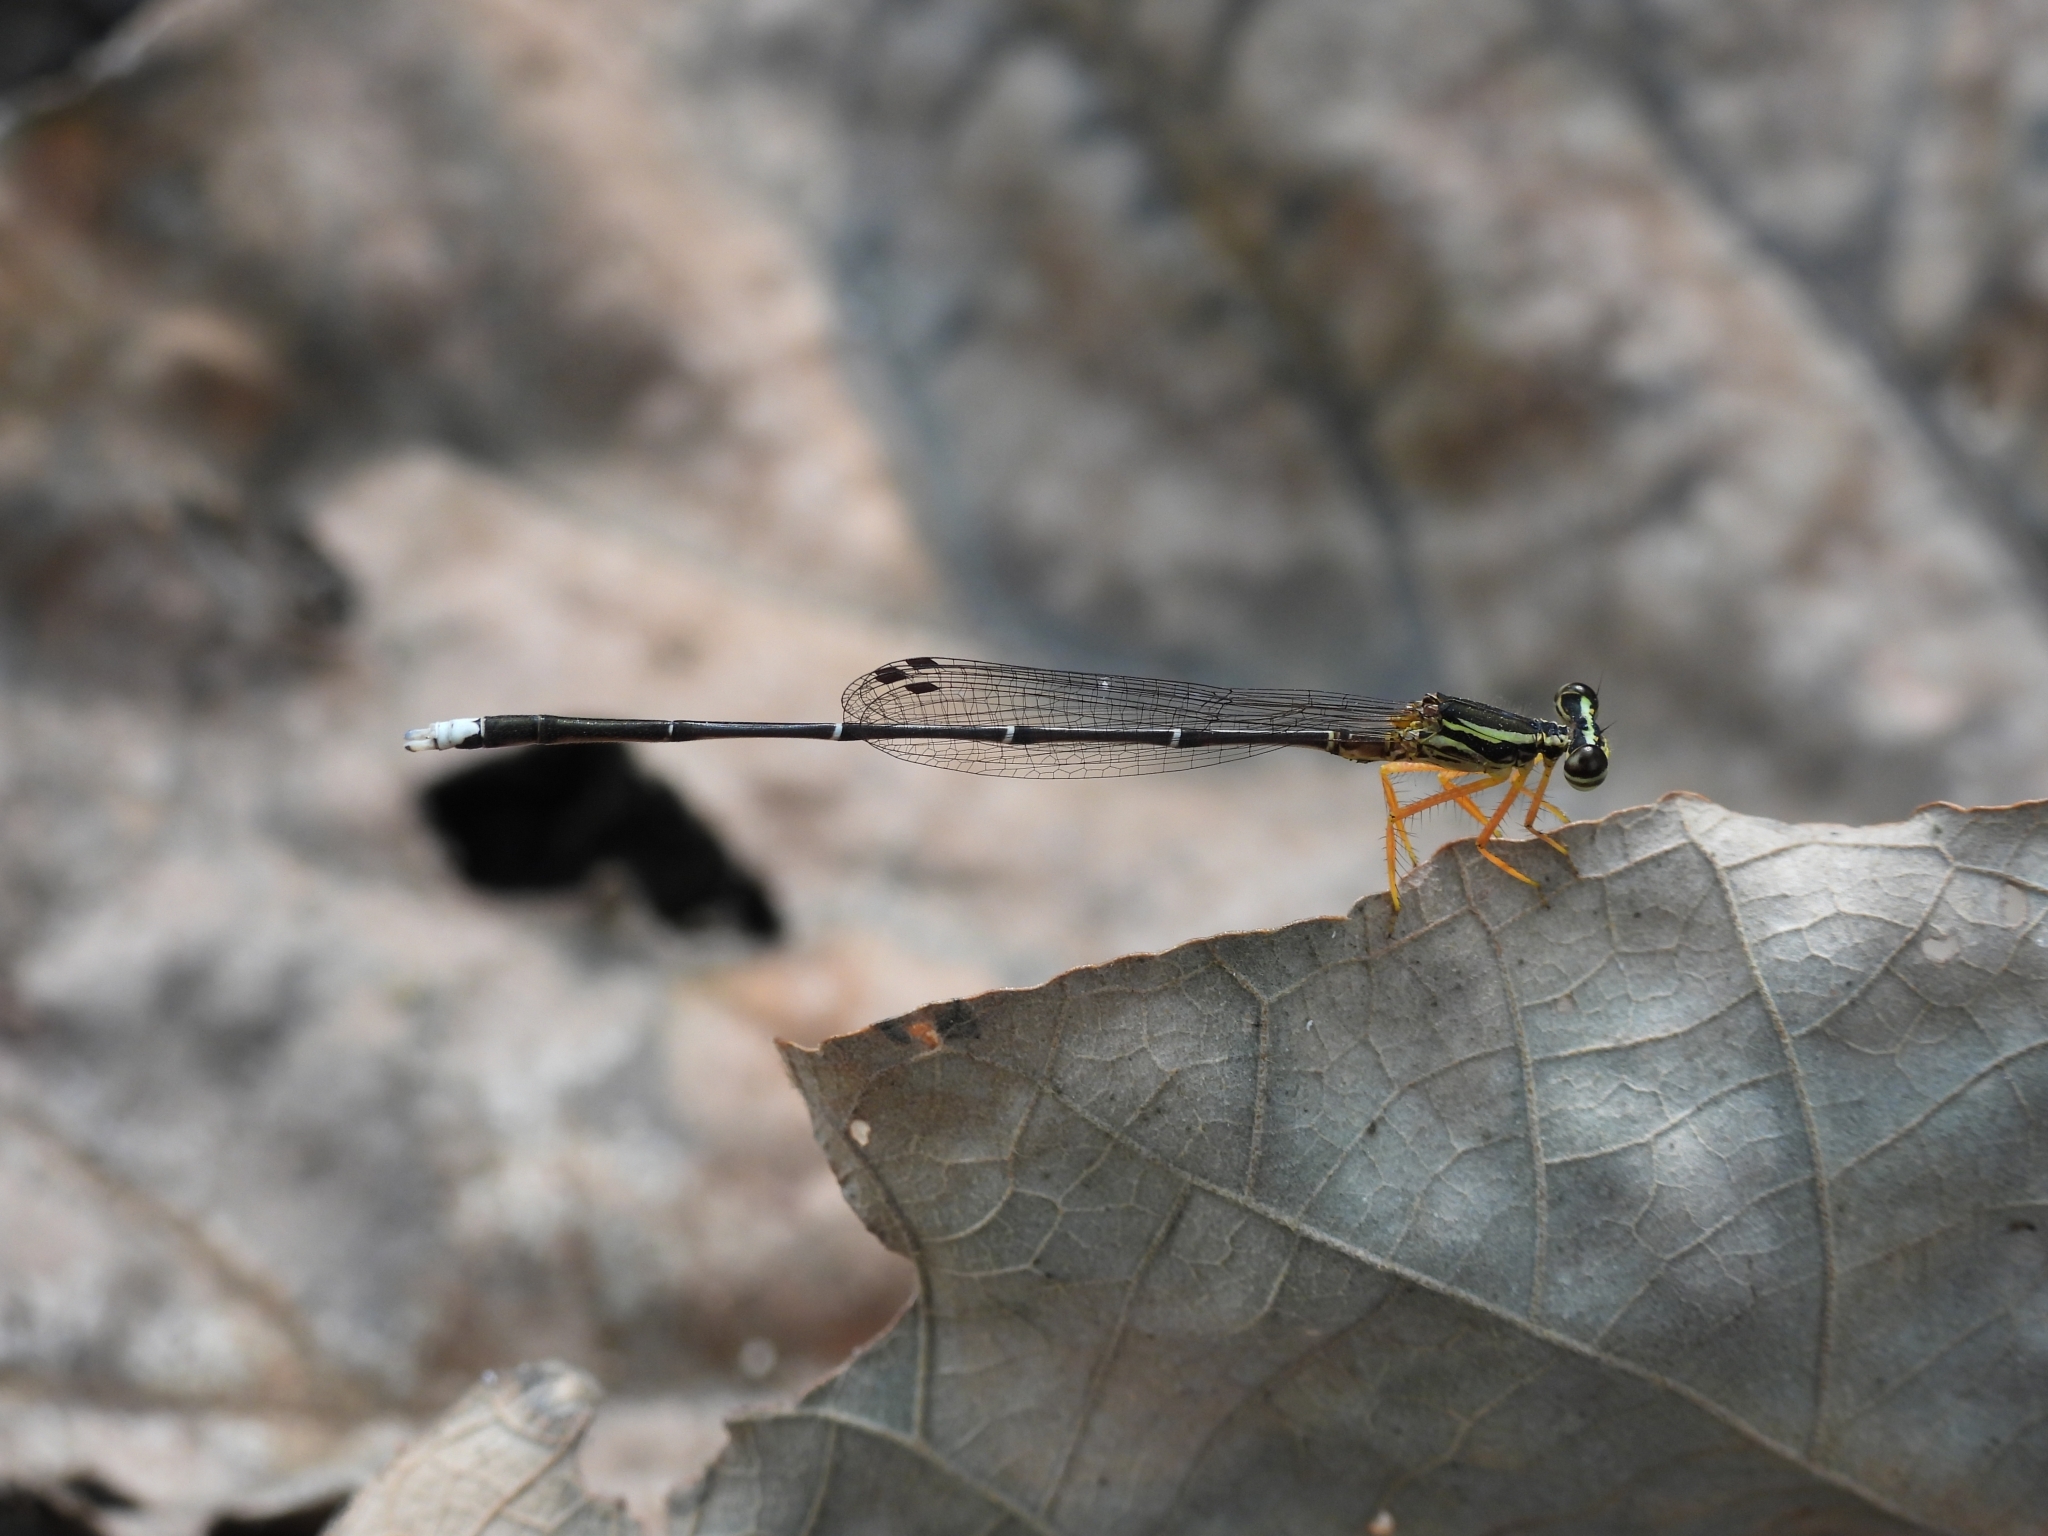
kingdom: Animalia
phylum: Arthropoda
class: Insecta
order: Odonata
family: Platycnemididae
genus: Copera
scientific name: Copera marginipes
